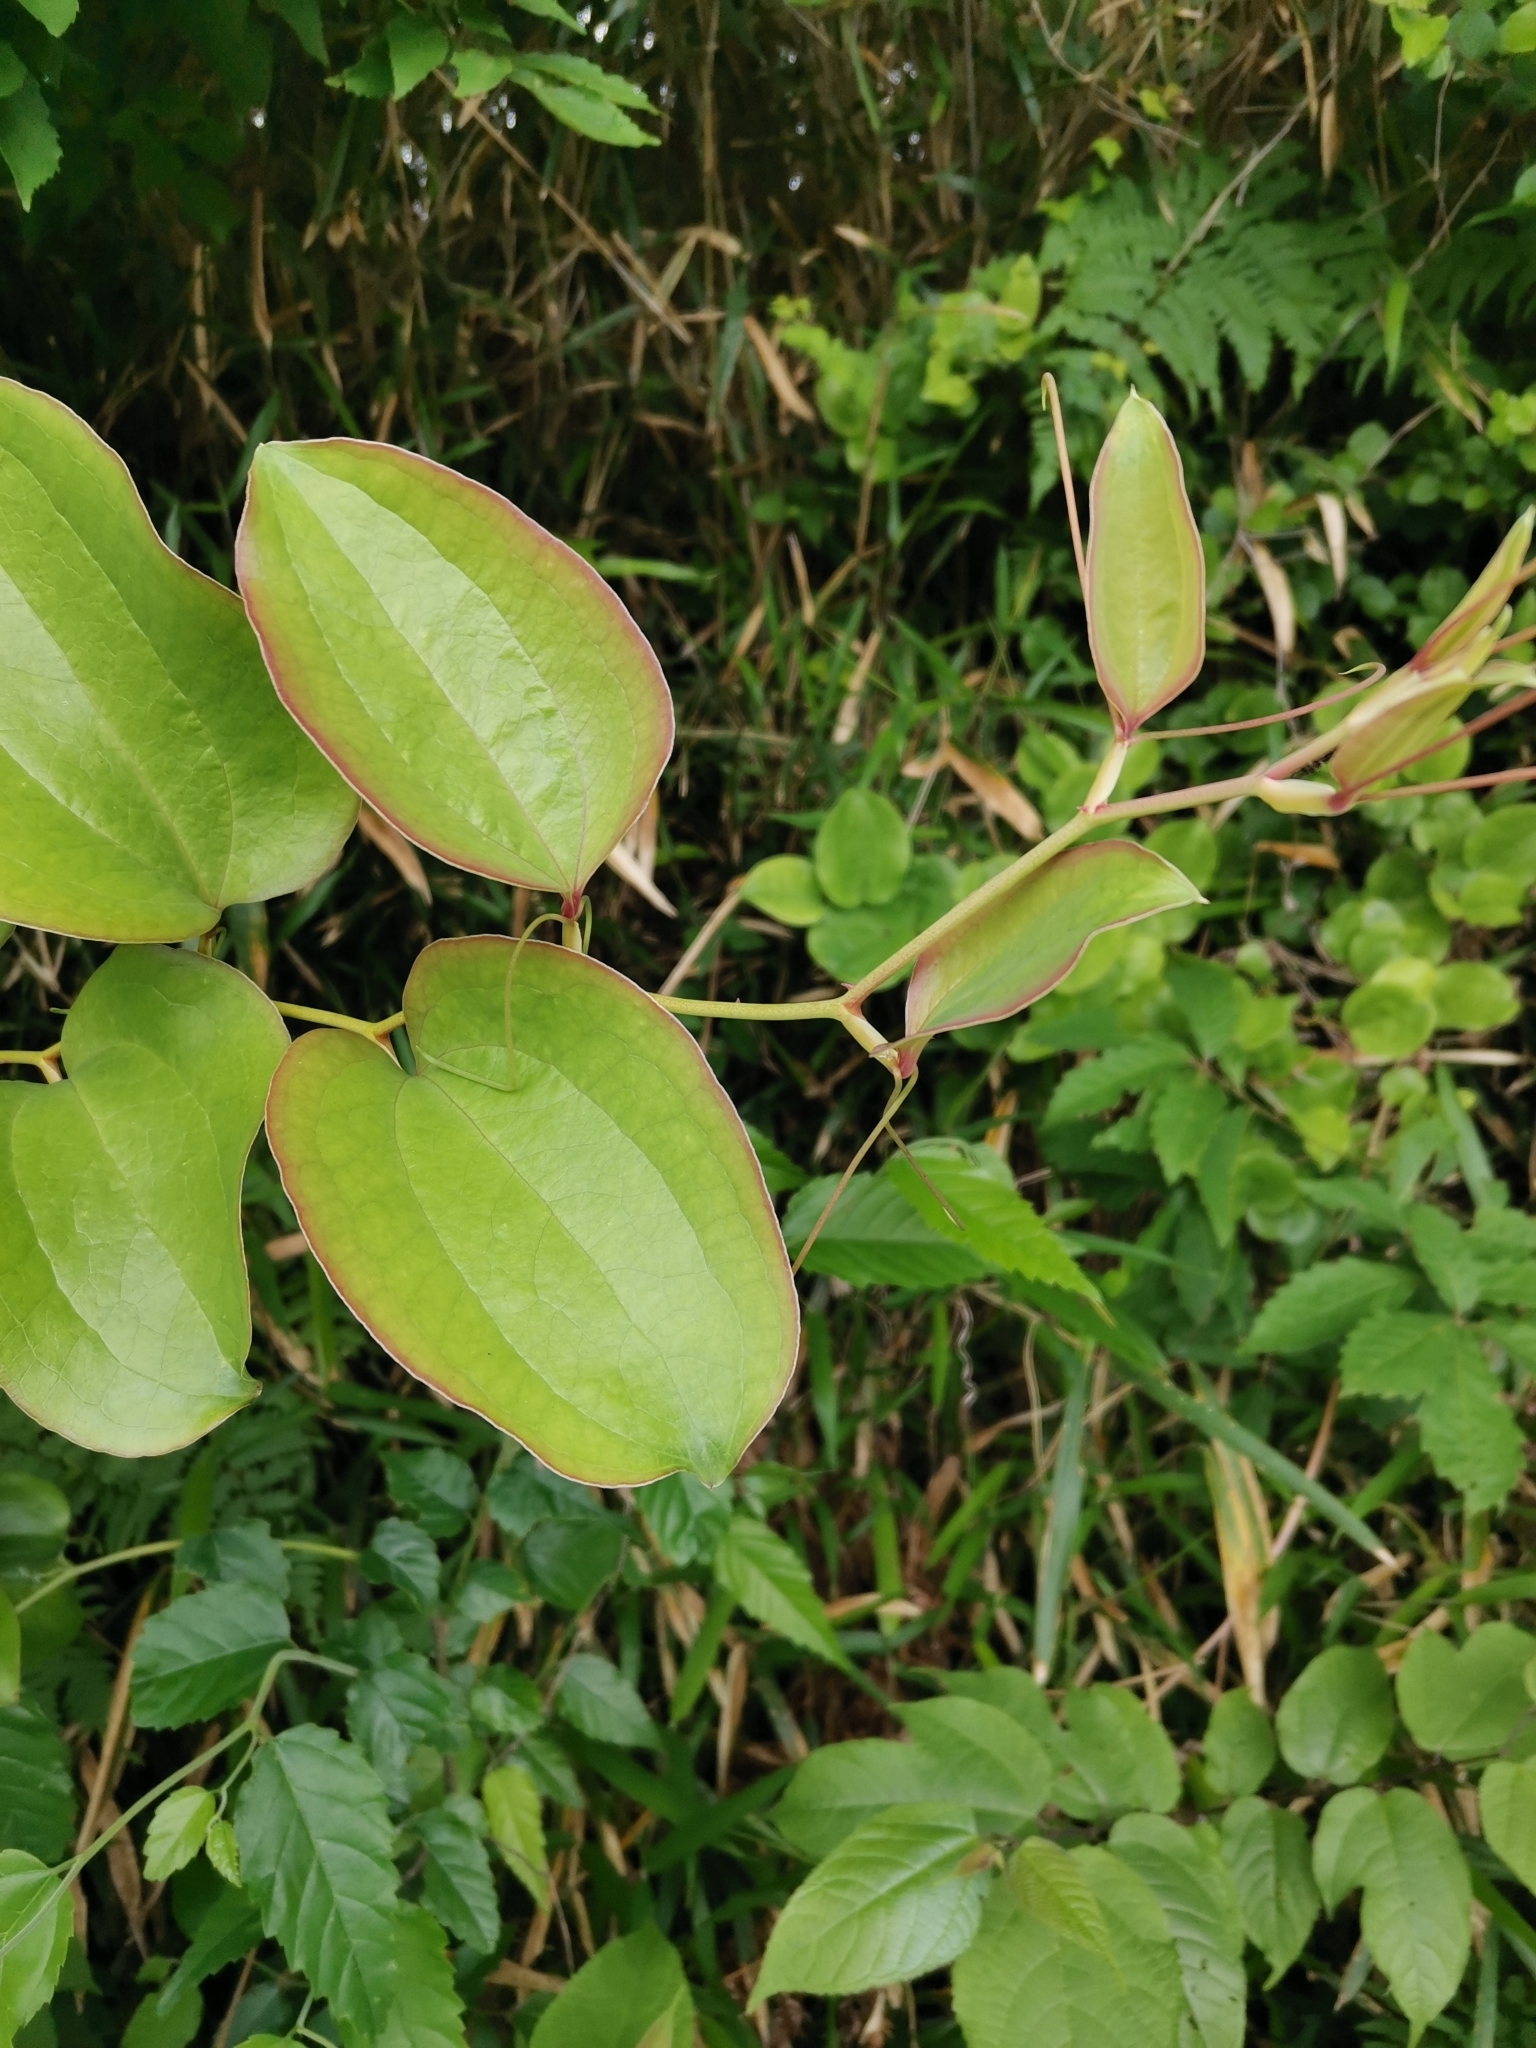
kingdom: Plantae
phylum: Tracheophyta
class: Liliopsida
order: Liliales
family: Smilacaceae
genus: Smilax
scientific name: Smilax china
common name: Chinaroot
